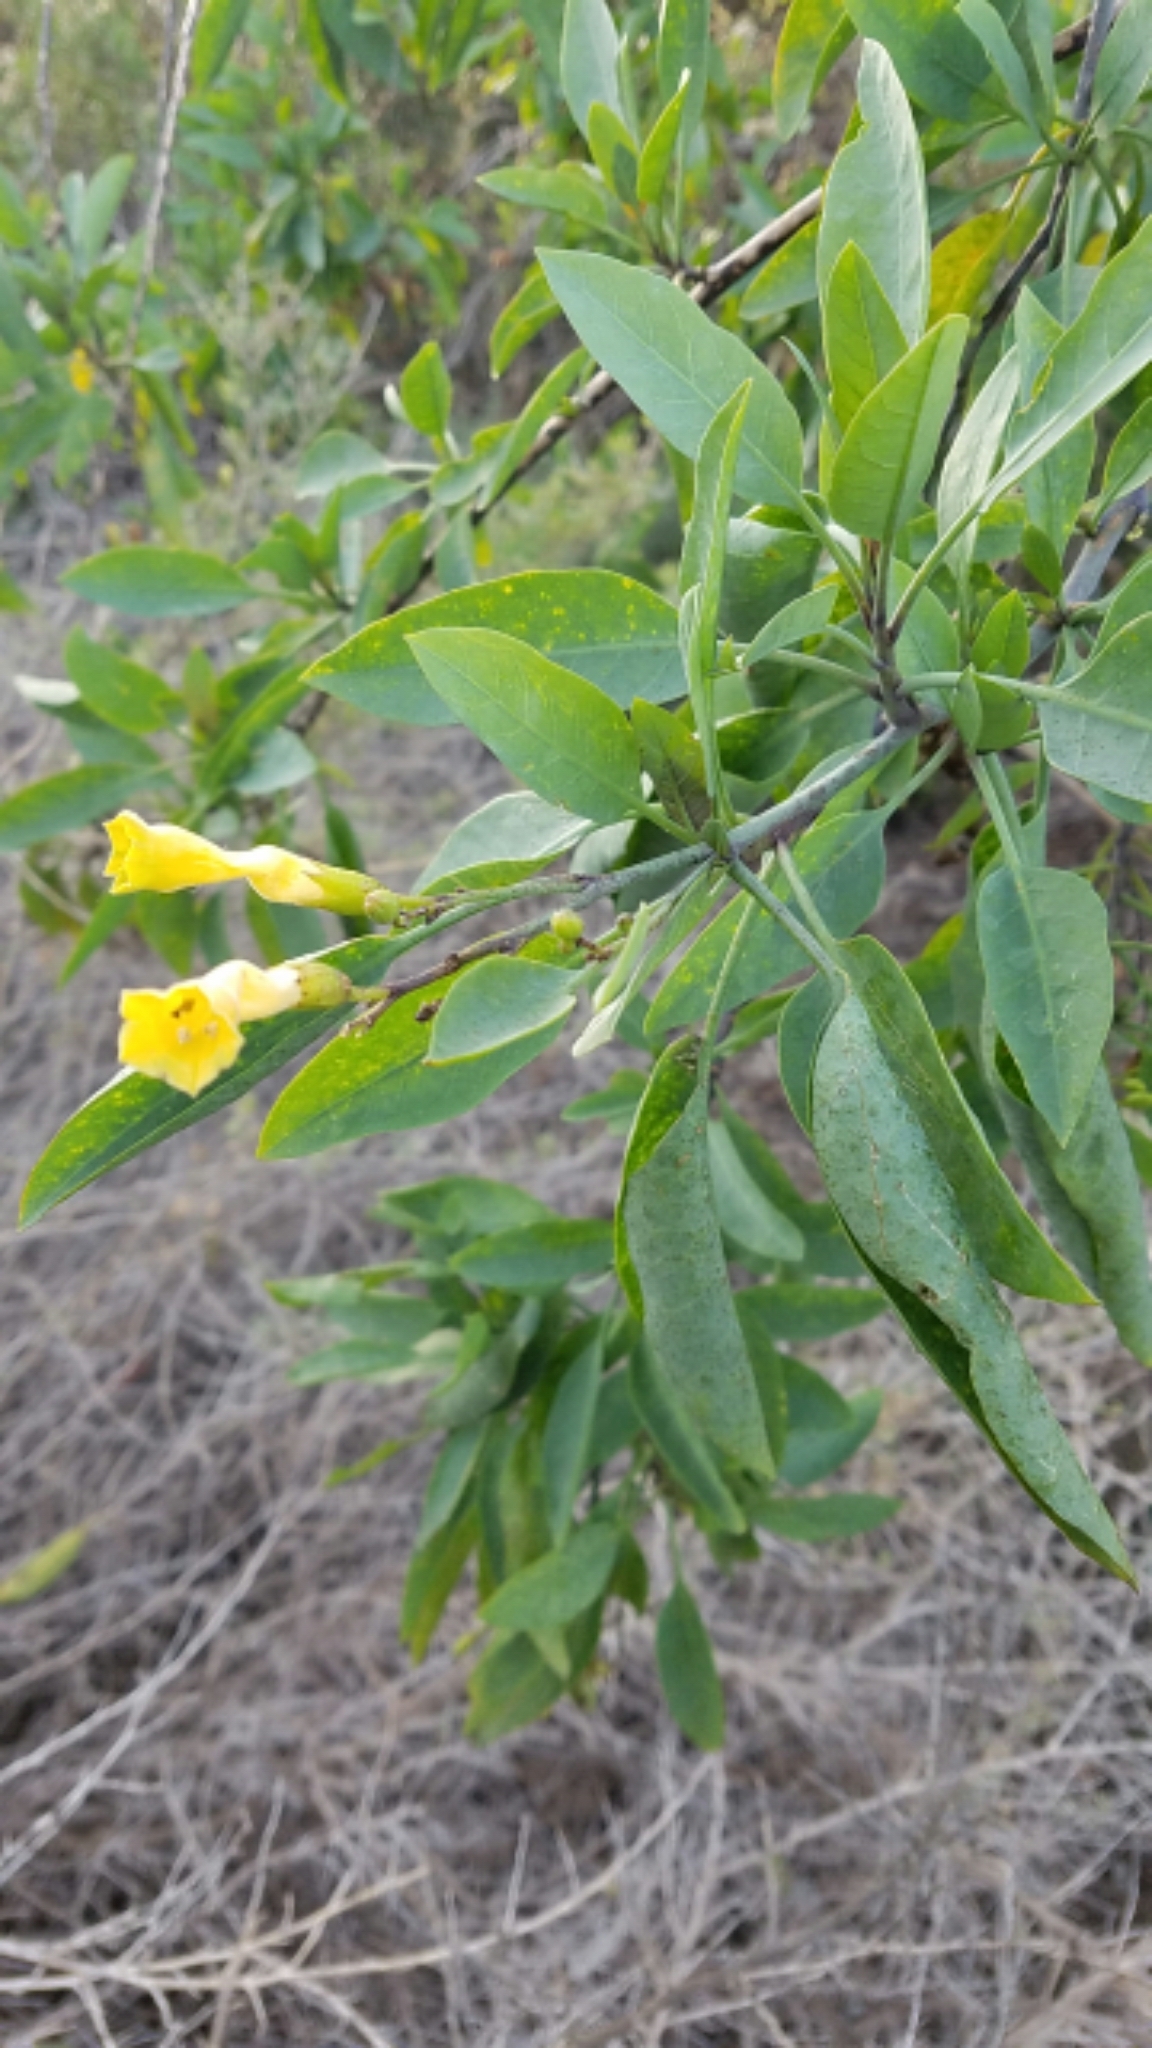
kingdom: Plantae
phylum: Tracheophyta
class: Magnoliopsida
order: Solanales
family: Solanaceae
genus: Nicotiana
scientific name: Nicotiana glauca
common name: Tree tobacco
